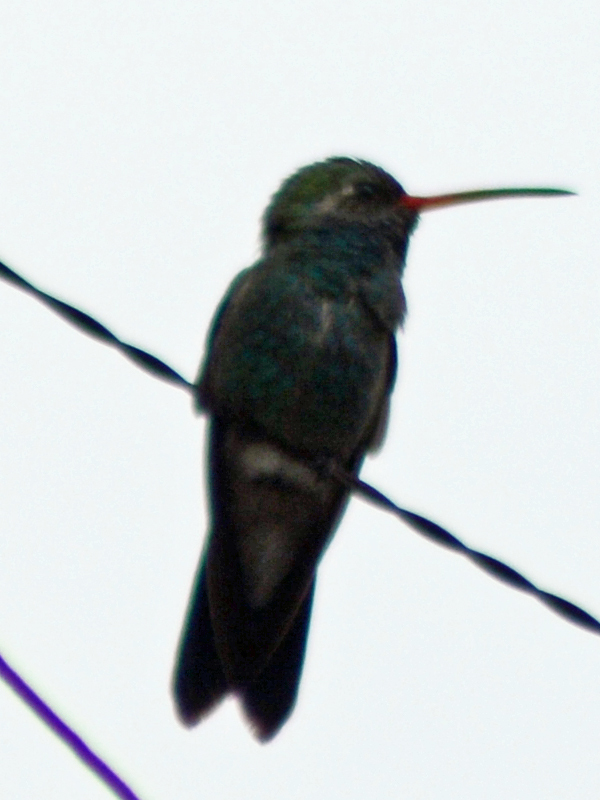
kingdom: Animalia
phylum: Chordata
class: Aves
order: Apodiformes
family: Trochilidae
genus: Cynanthus
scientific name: Cynanthus latirostris
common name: Broad-billed hummingbird
